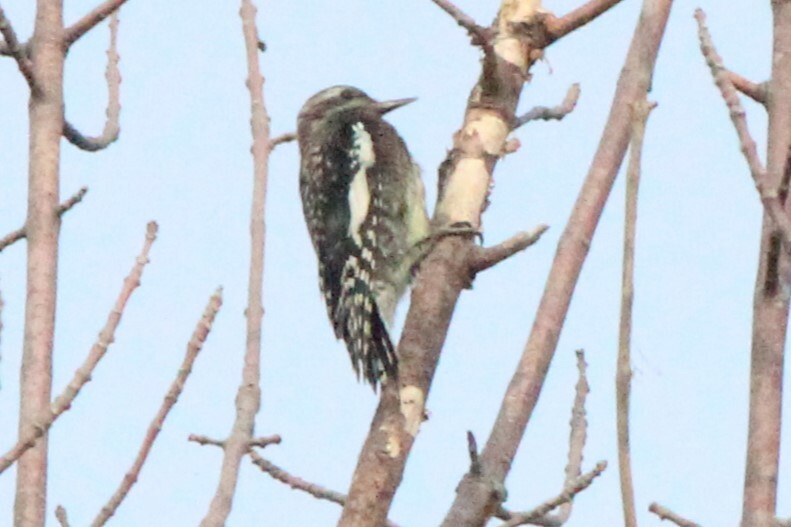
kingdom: Animalia
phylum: Chordata
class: Aves
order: Piciformes
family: Picidae
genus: Sphyrapicus
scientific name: Sphyrapicus varius
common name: Yellow-bellied sapsucker
